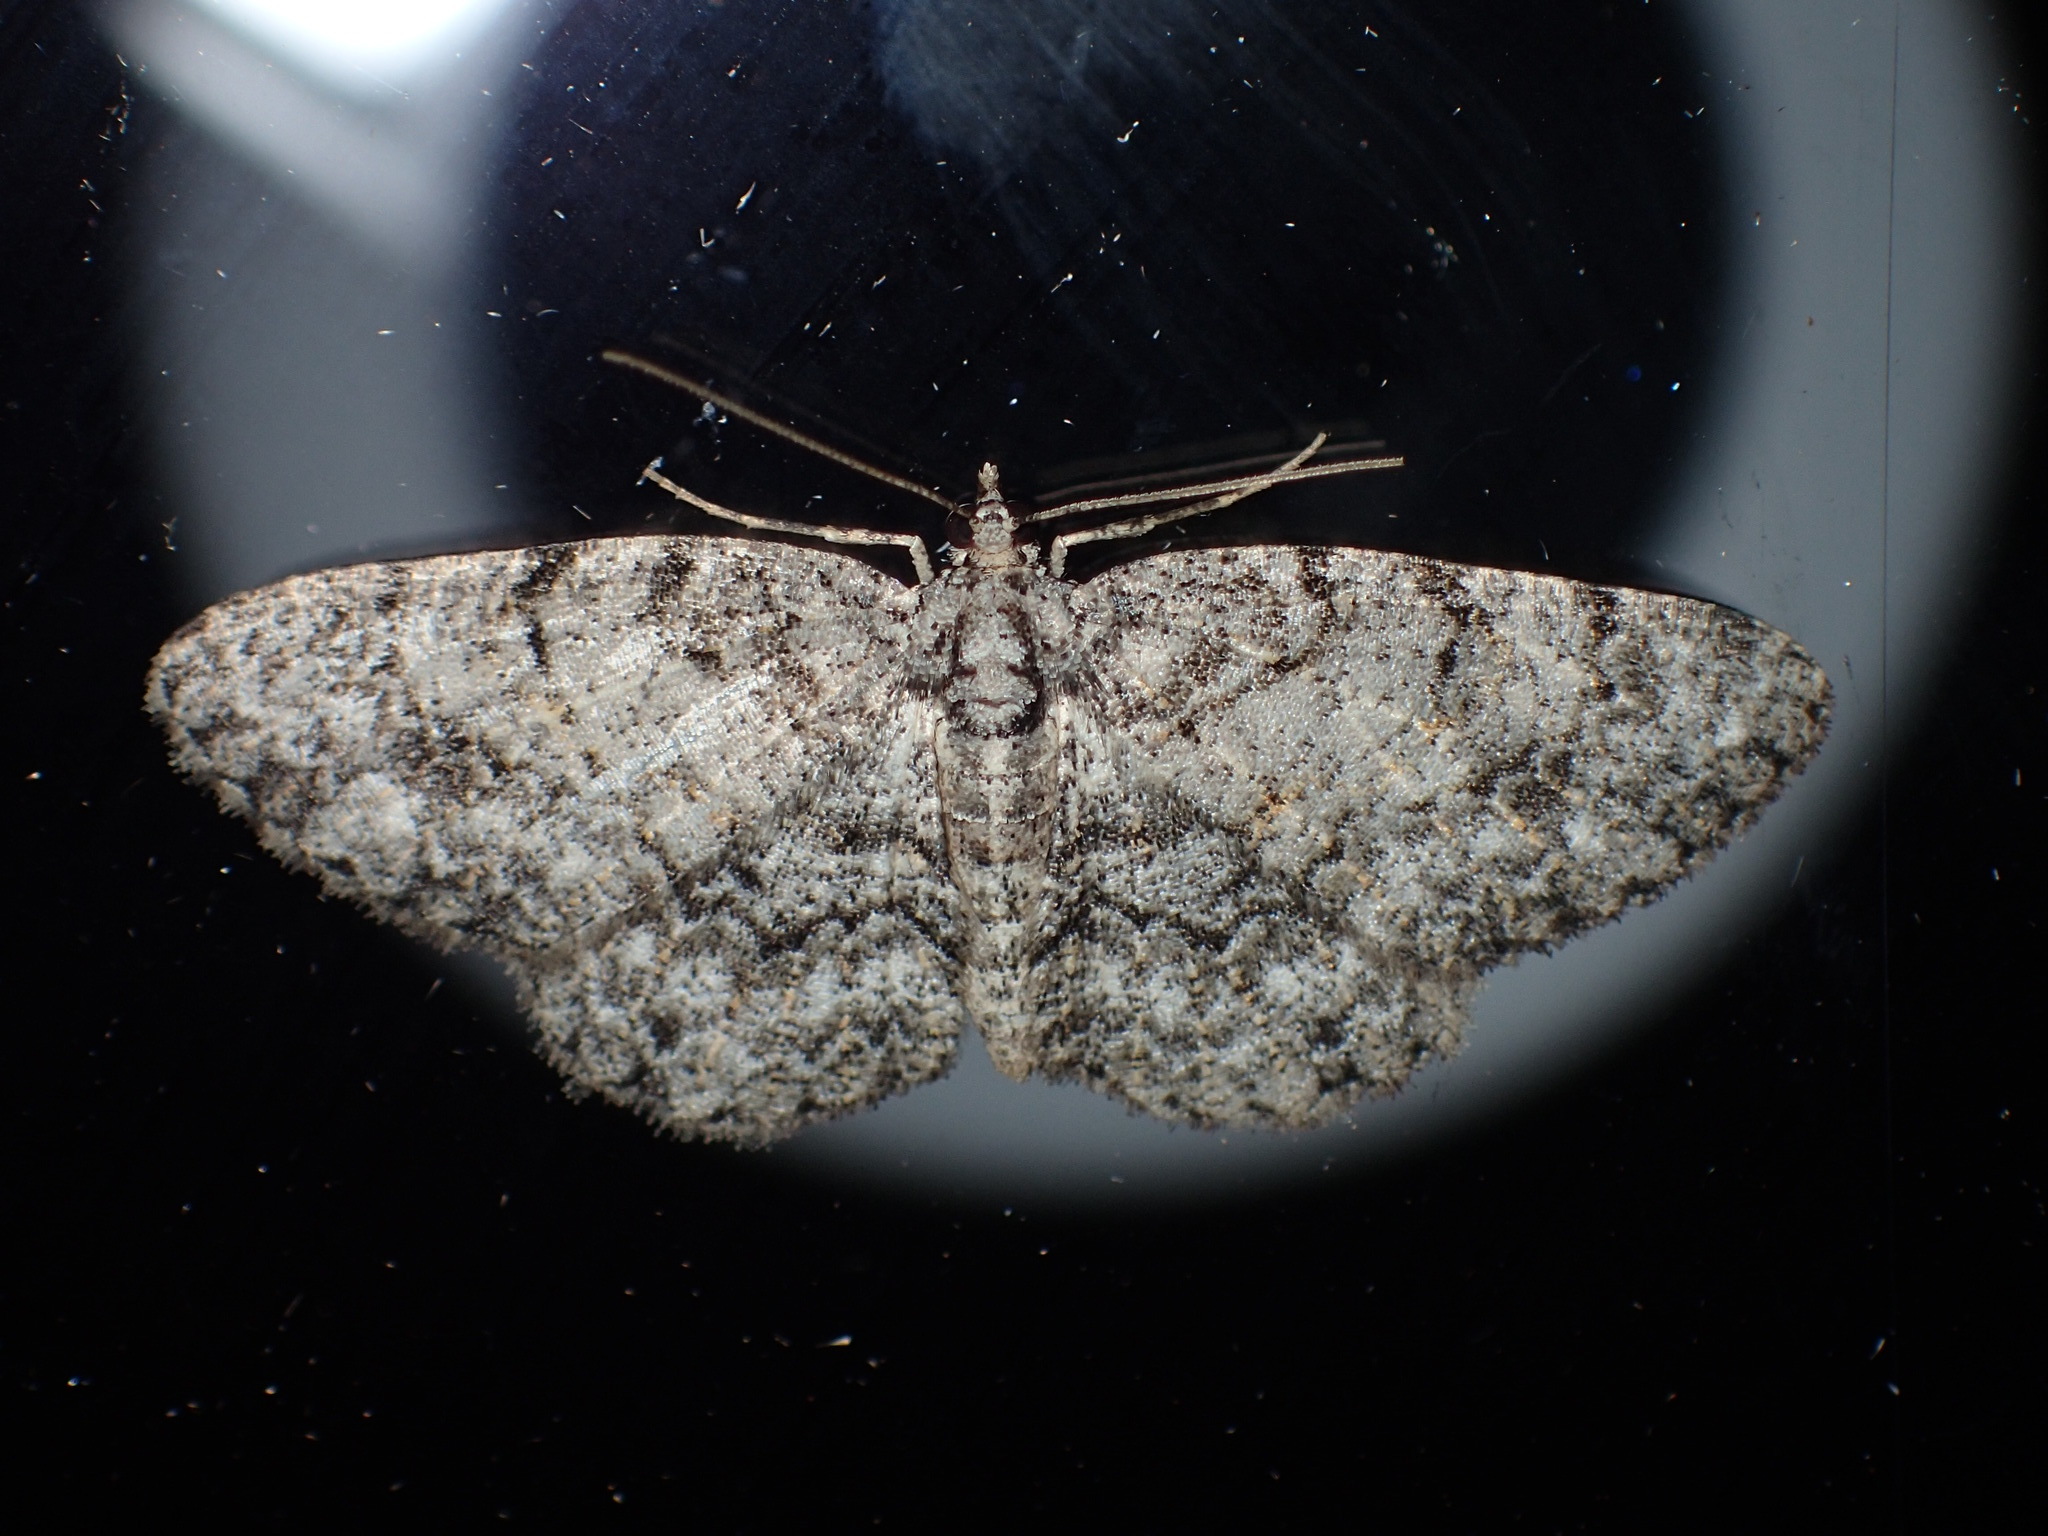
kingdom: Animalia
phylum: Arthropoda
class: Insecta
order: Lepidoptera
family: Geometridae
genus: Protoboarmia
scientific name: Protoboarmia porcelaria
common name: Porcelain gray
